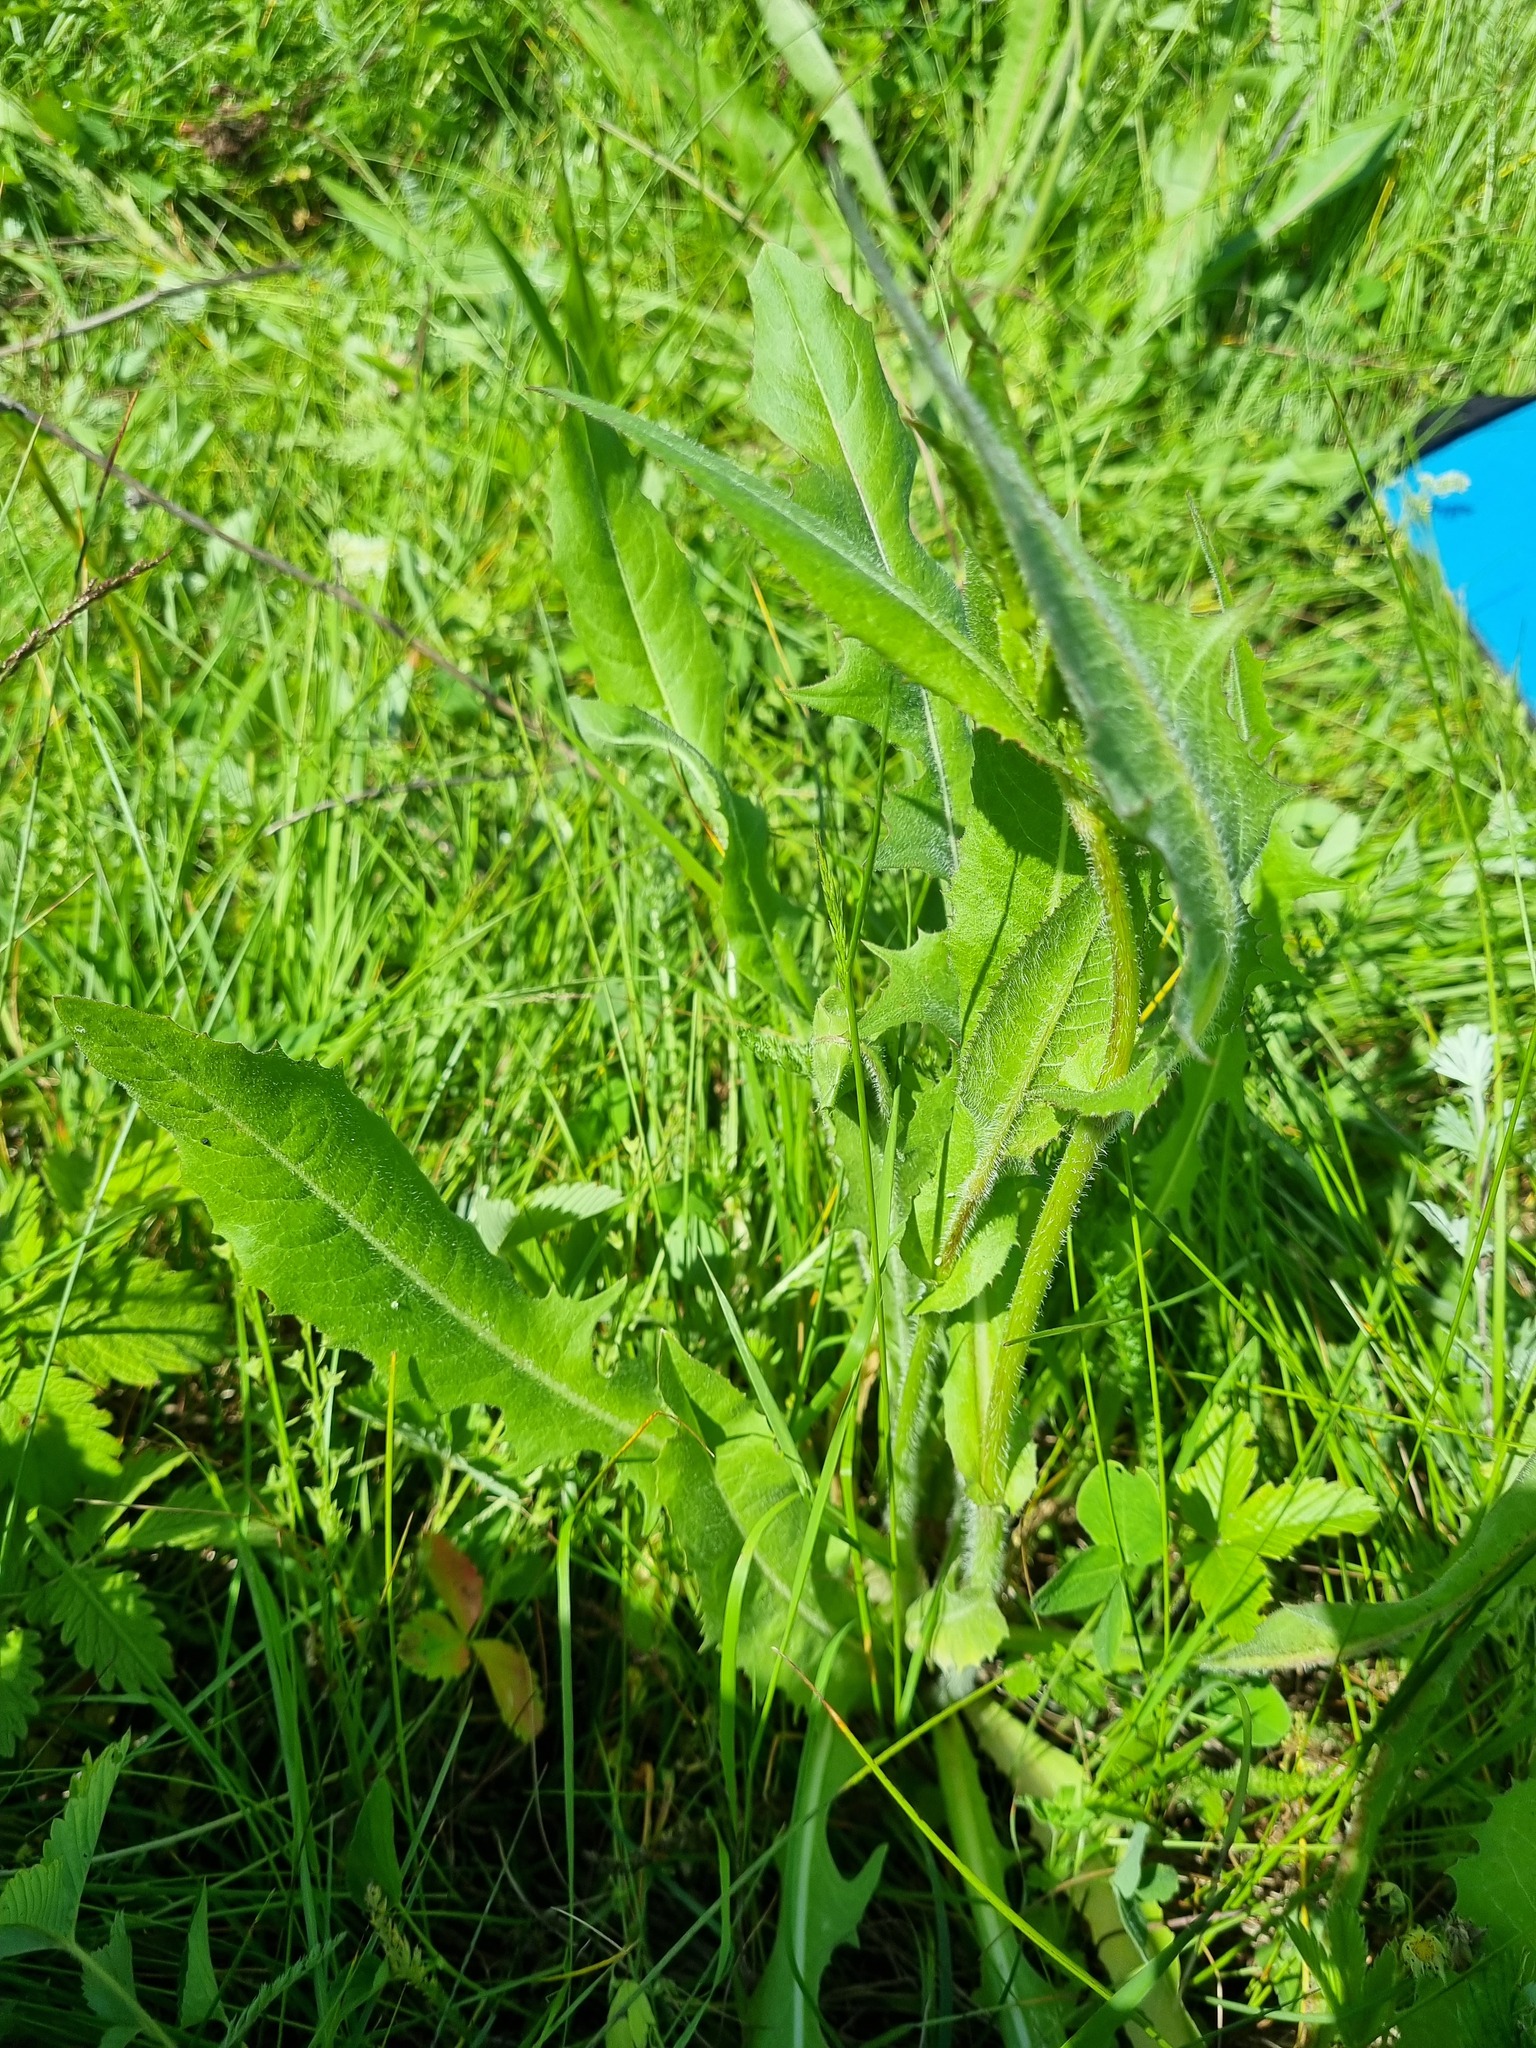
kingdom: Plantae
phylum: Tracheophyta
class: Magnoliopsida
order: Asterales
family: Asteraceae
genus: Cichorium
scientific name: Cichorium intybus
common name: Chicory
